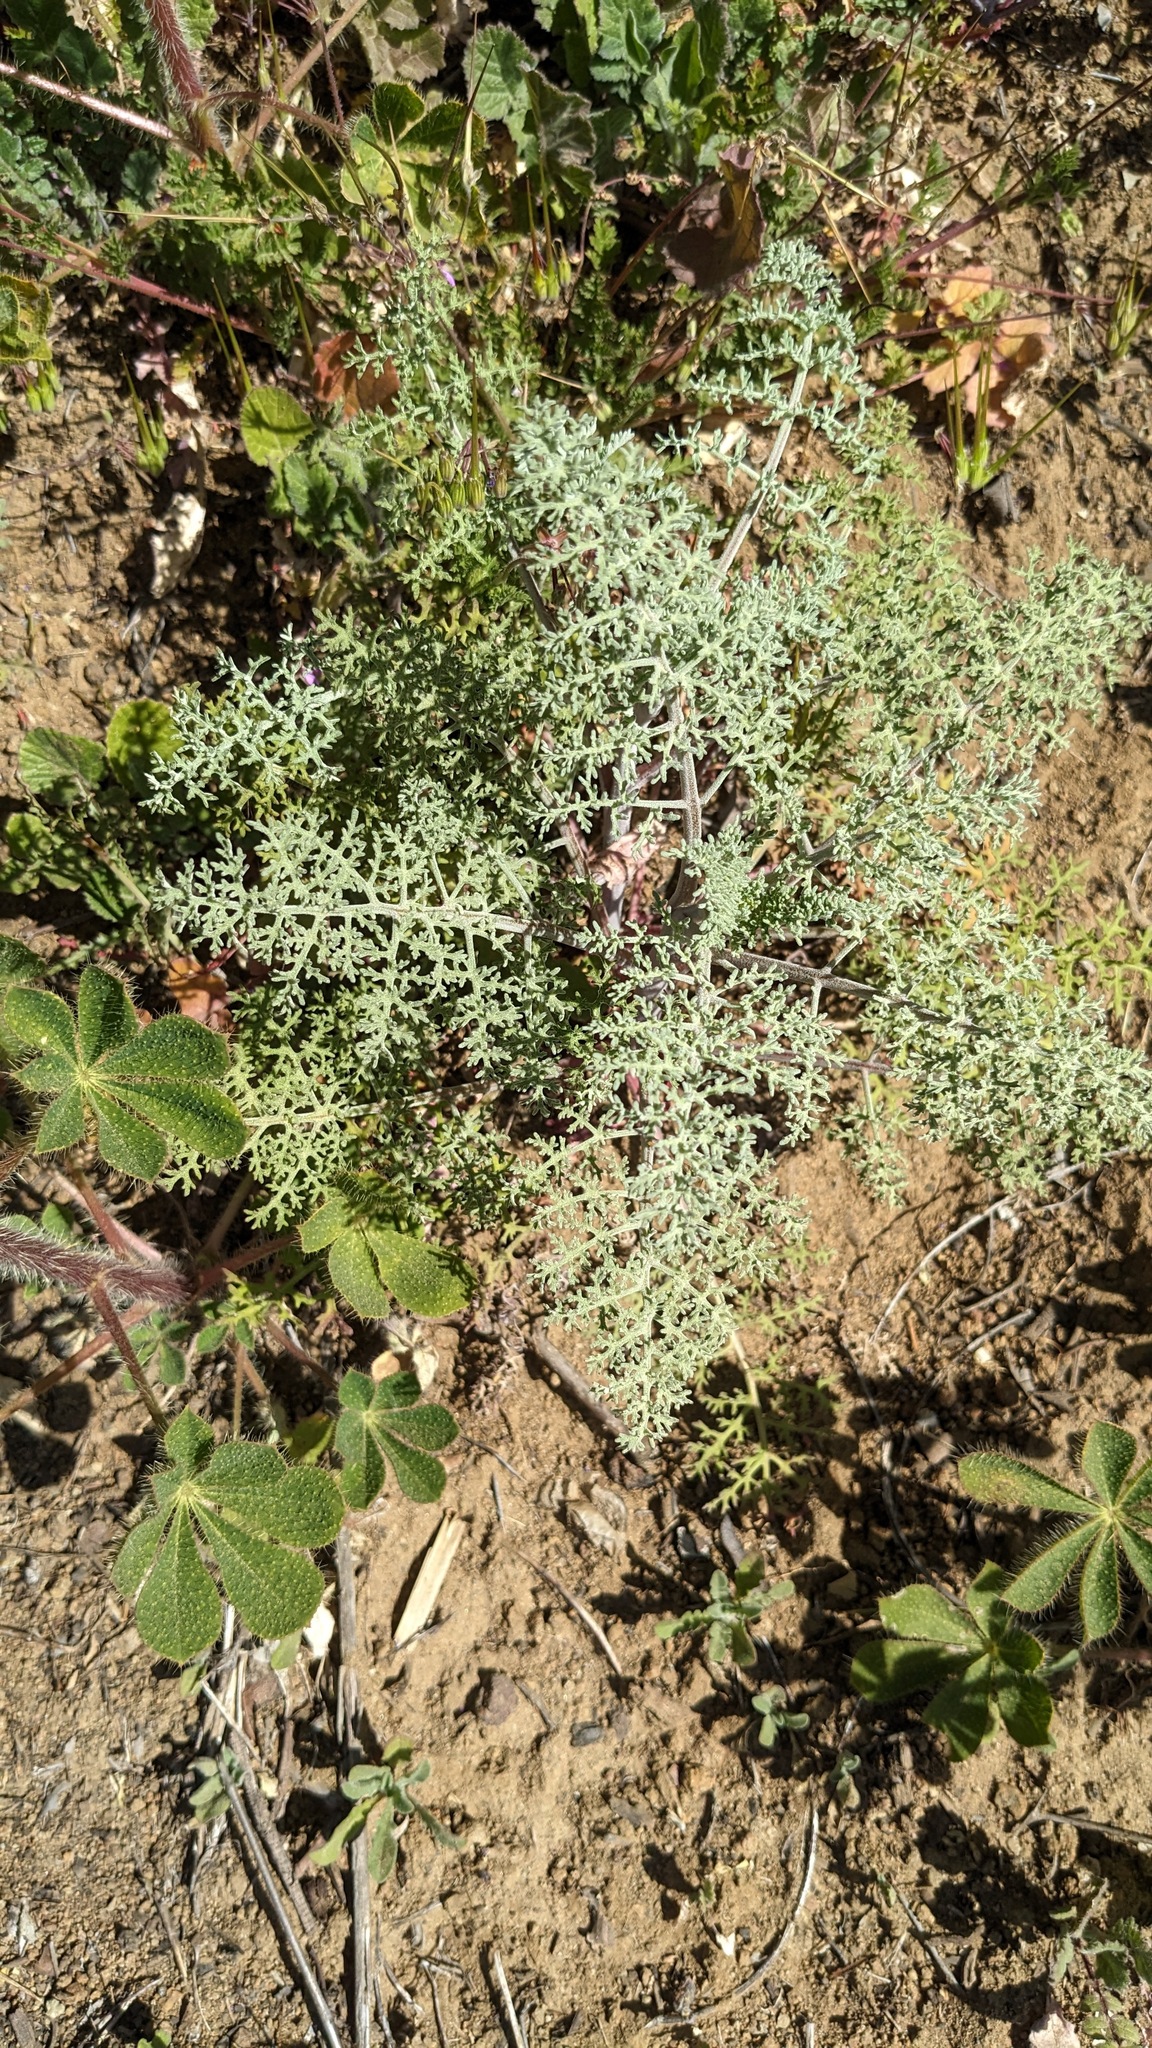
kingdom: Plantae
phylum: Tracheophyta
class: Magnoliopsida
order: Asterales
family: Asteraceae
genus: Chaenactis
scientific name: Chaenactis artemisiifolia
